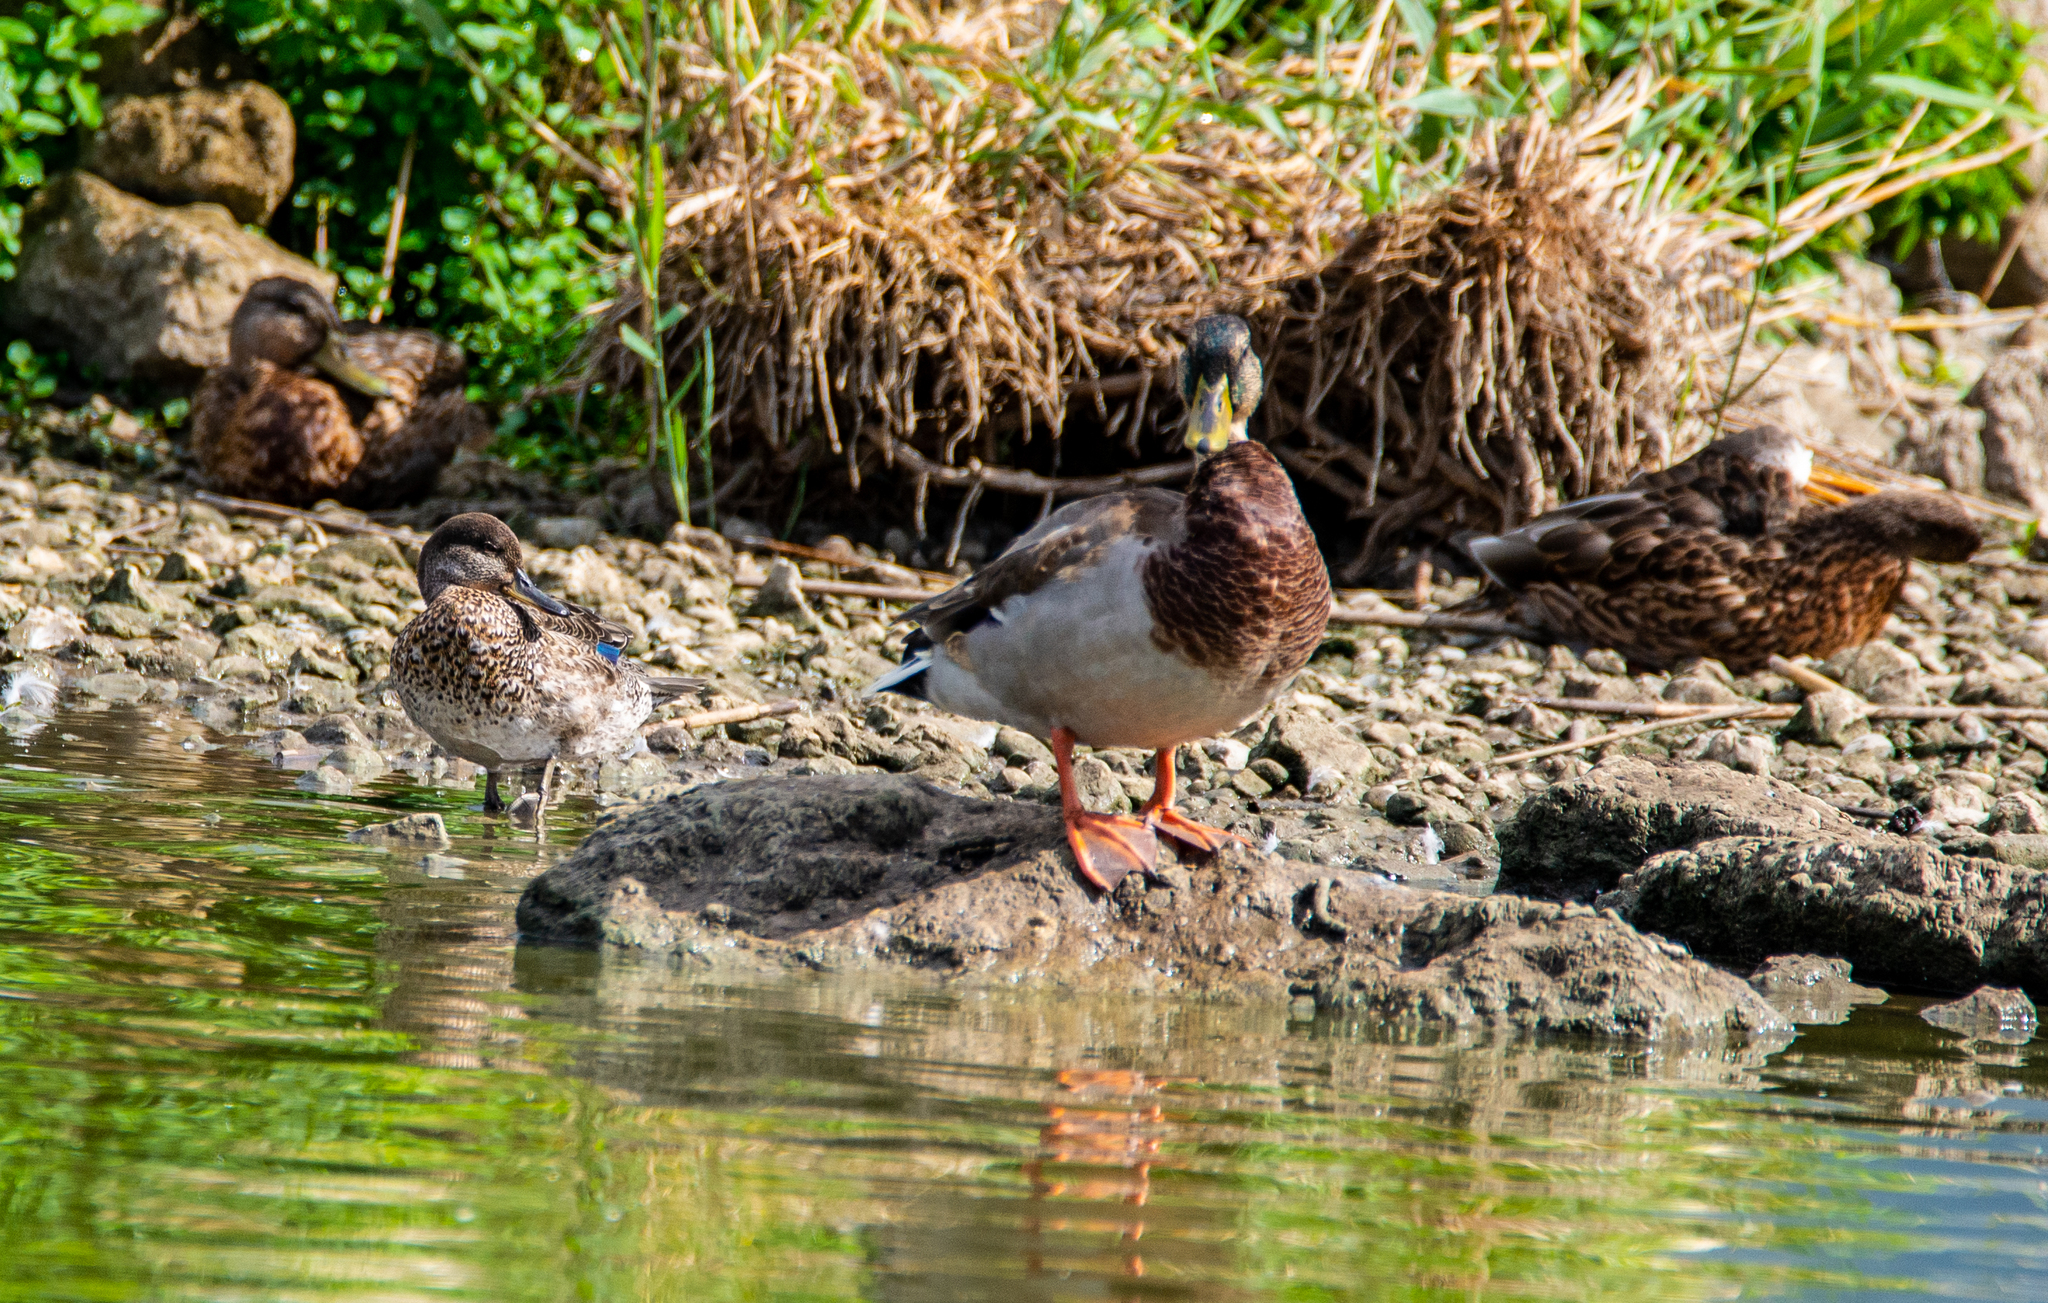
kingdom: Animalia
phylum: Chordata
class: Aves
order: Anseriformes
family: Anatidae
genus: Anas
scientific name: Anas crecca
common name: Eurasian teal
